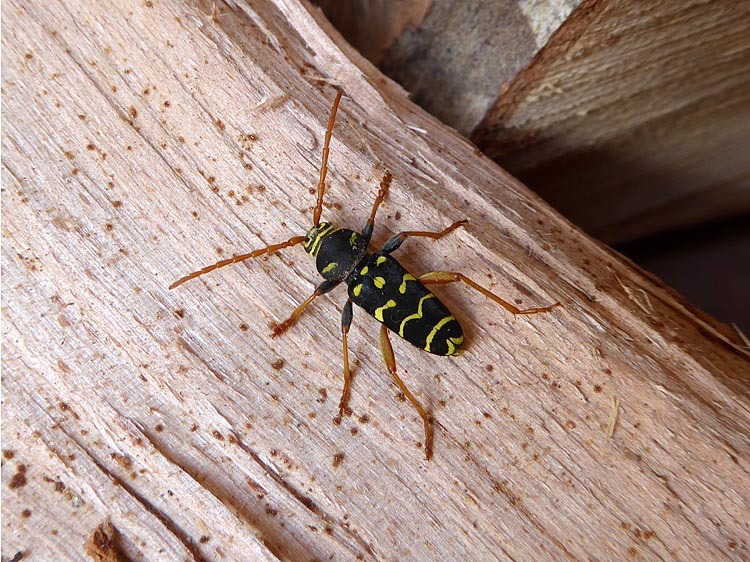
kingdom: Animalia
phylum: Arthropoda
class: Insecta
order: Coleoptera
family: Cerambycidae
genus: Plagionotus
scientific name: Plagionotus arcuatus
